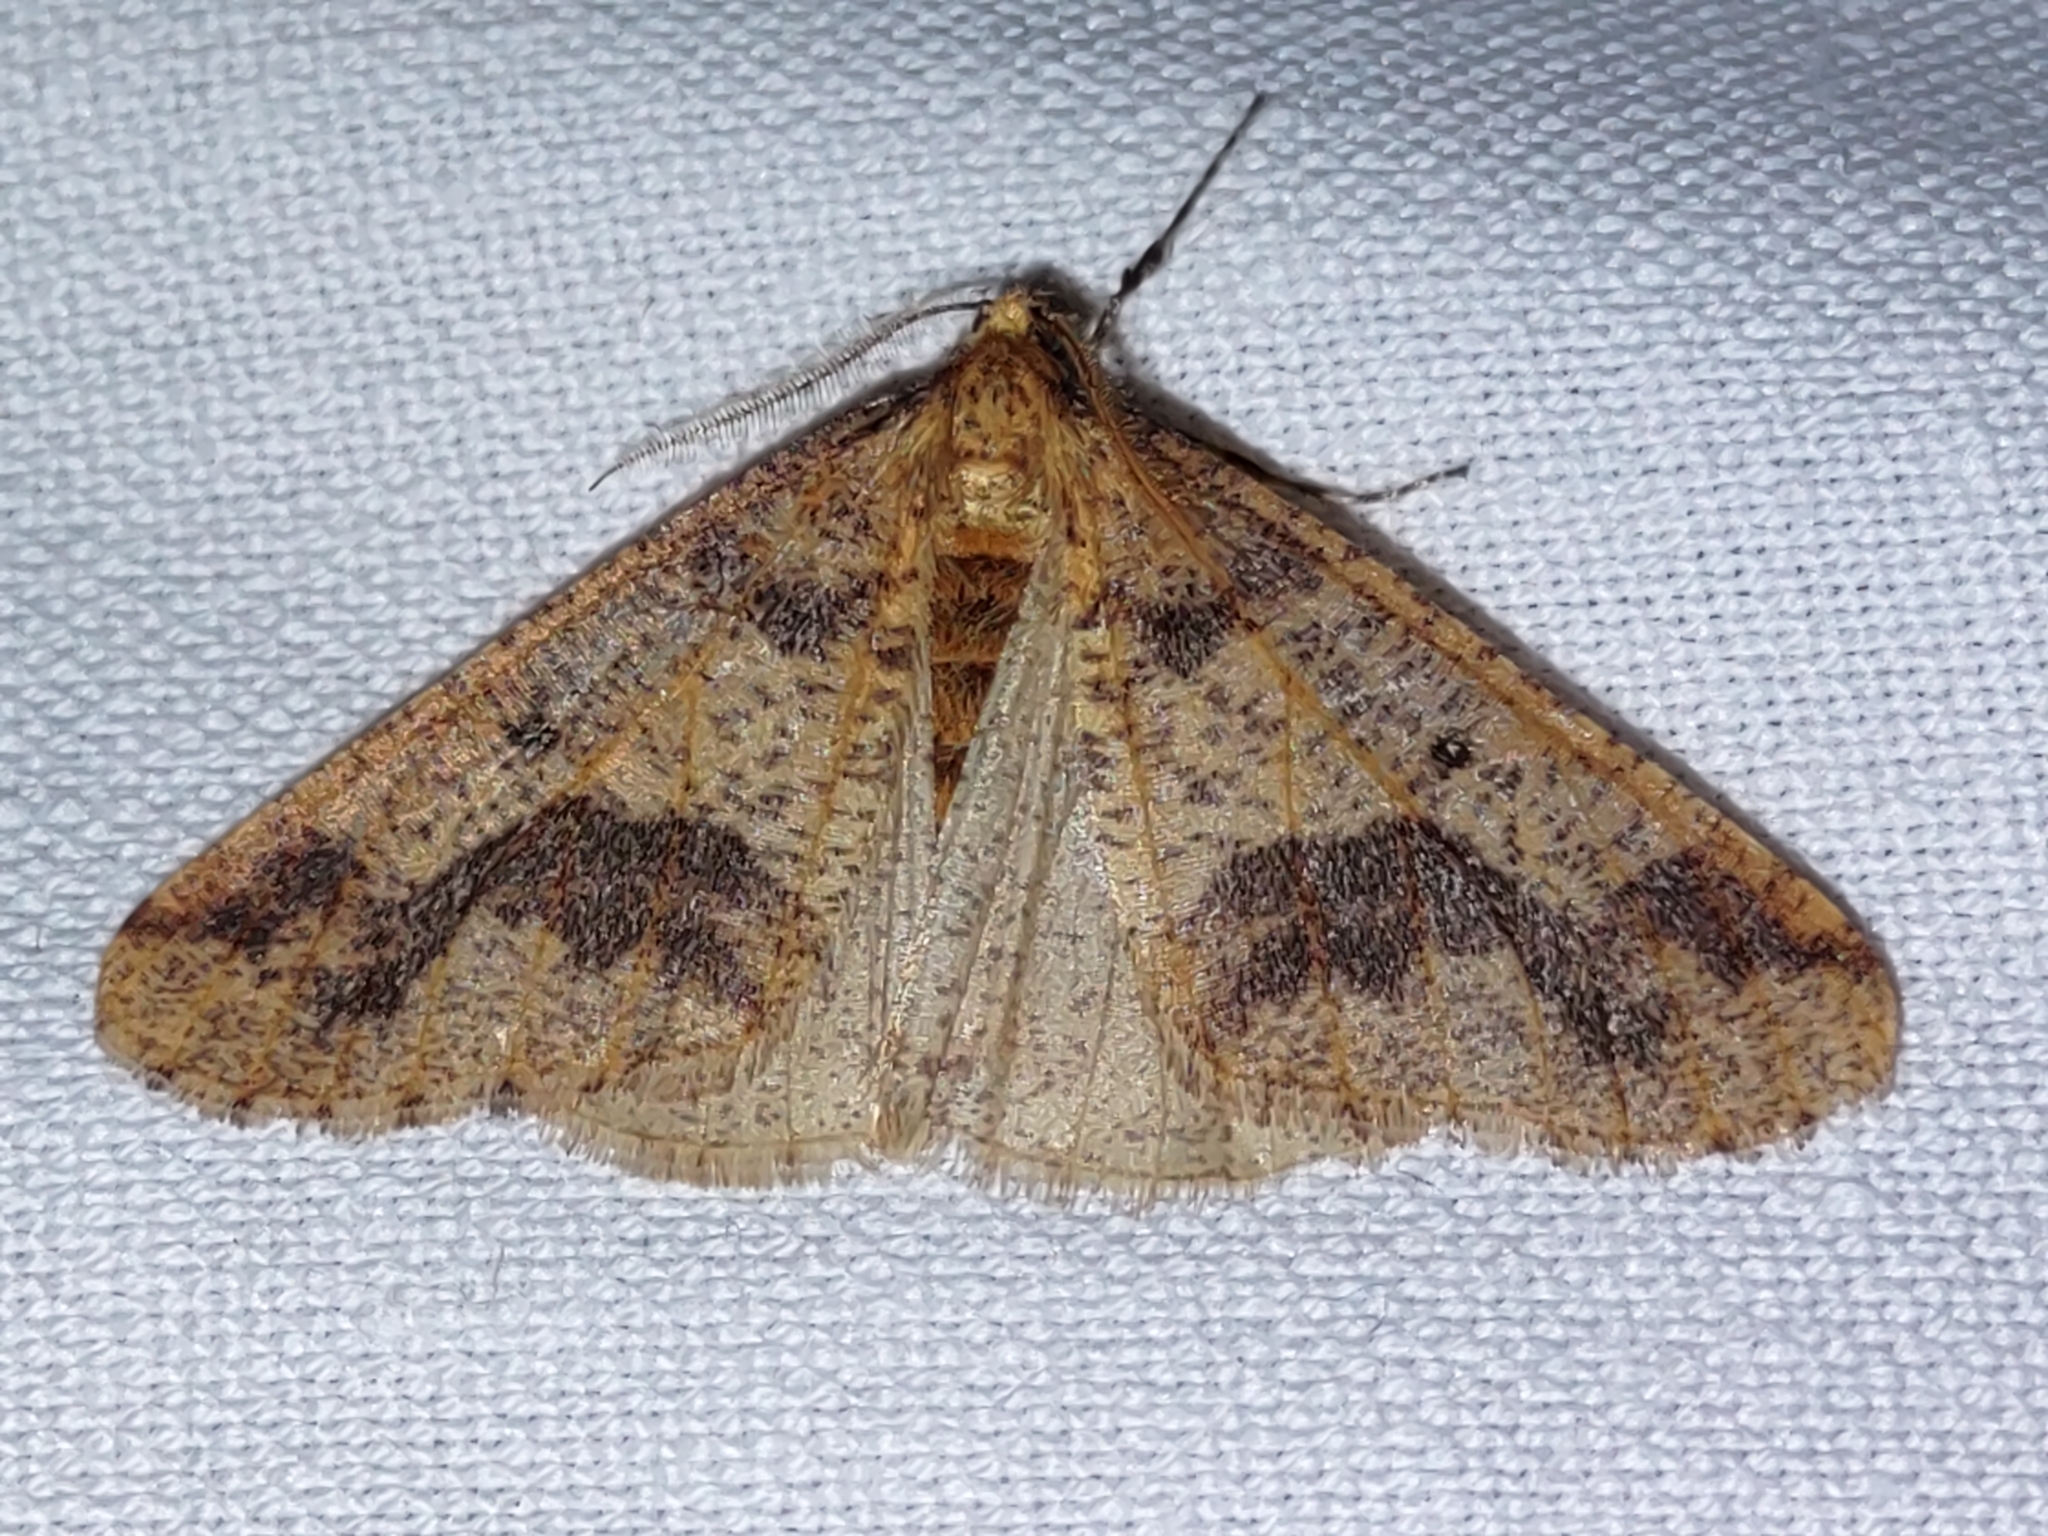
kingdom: Animalia
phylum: Arthropoda
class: Insecta
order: Lepidoptera
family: Geometridae
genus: Erannis
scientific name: Erannis defoliaria
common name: Mottled umber
